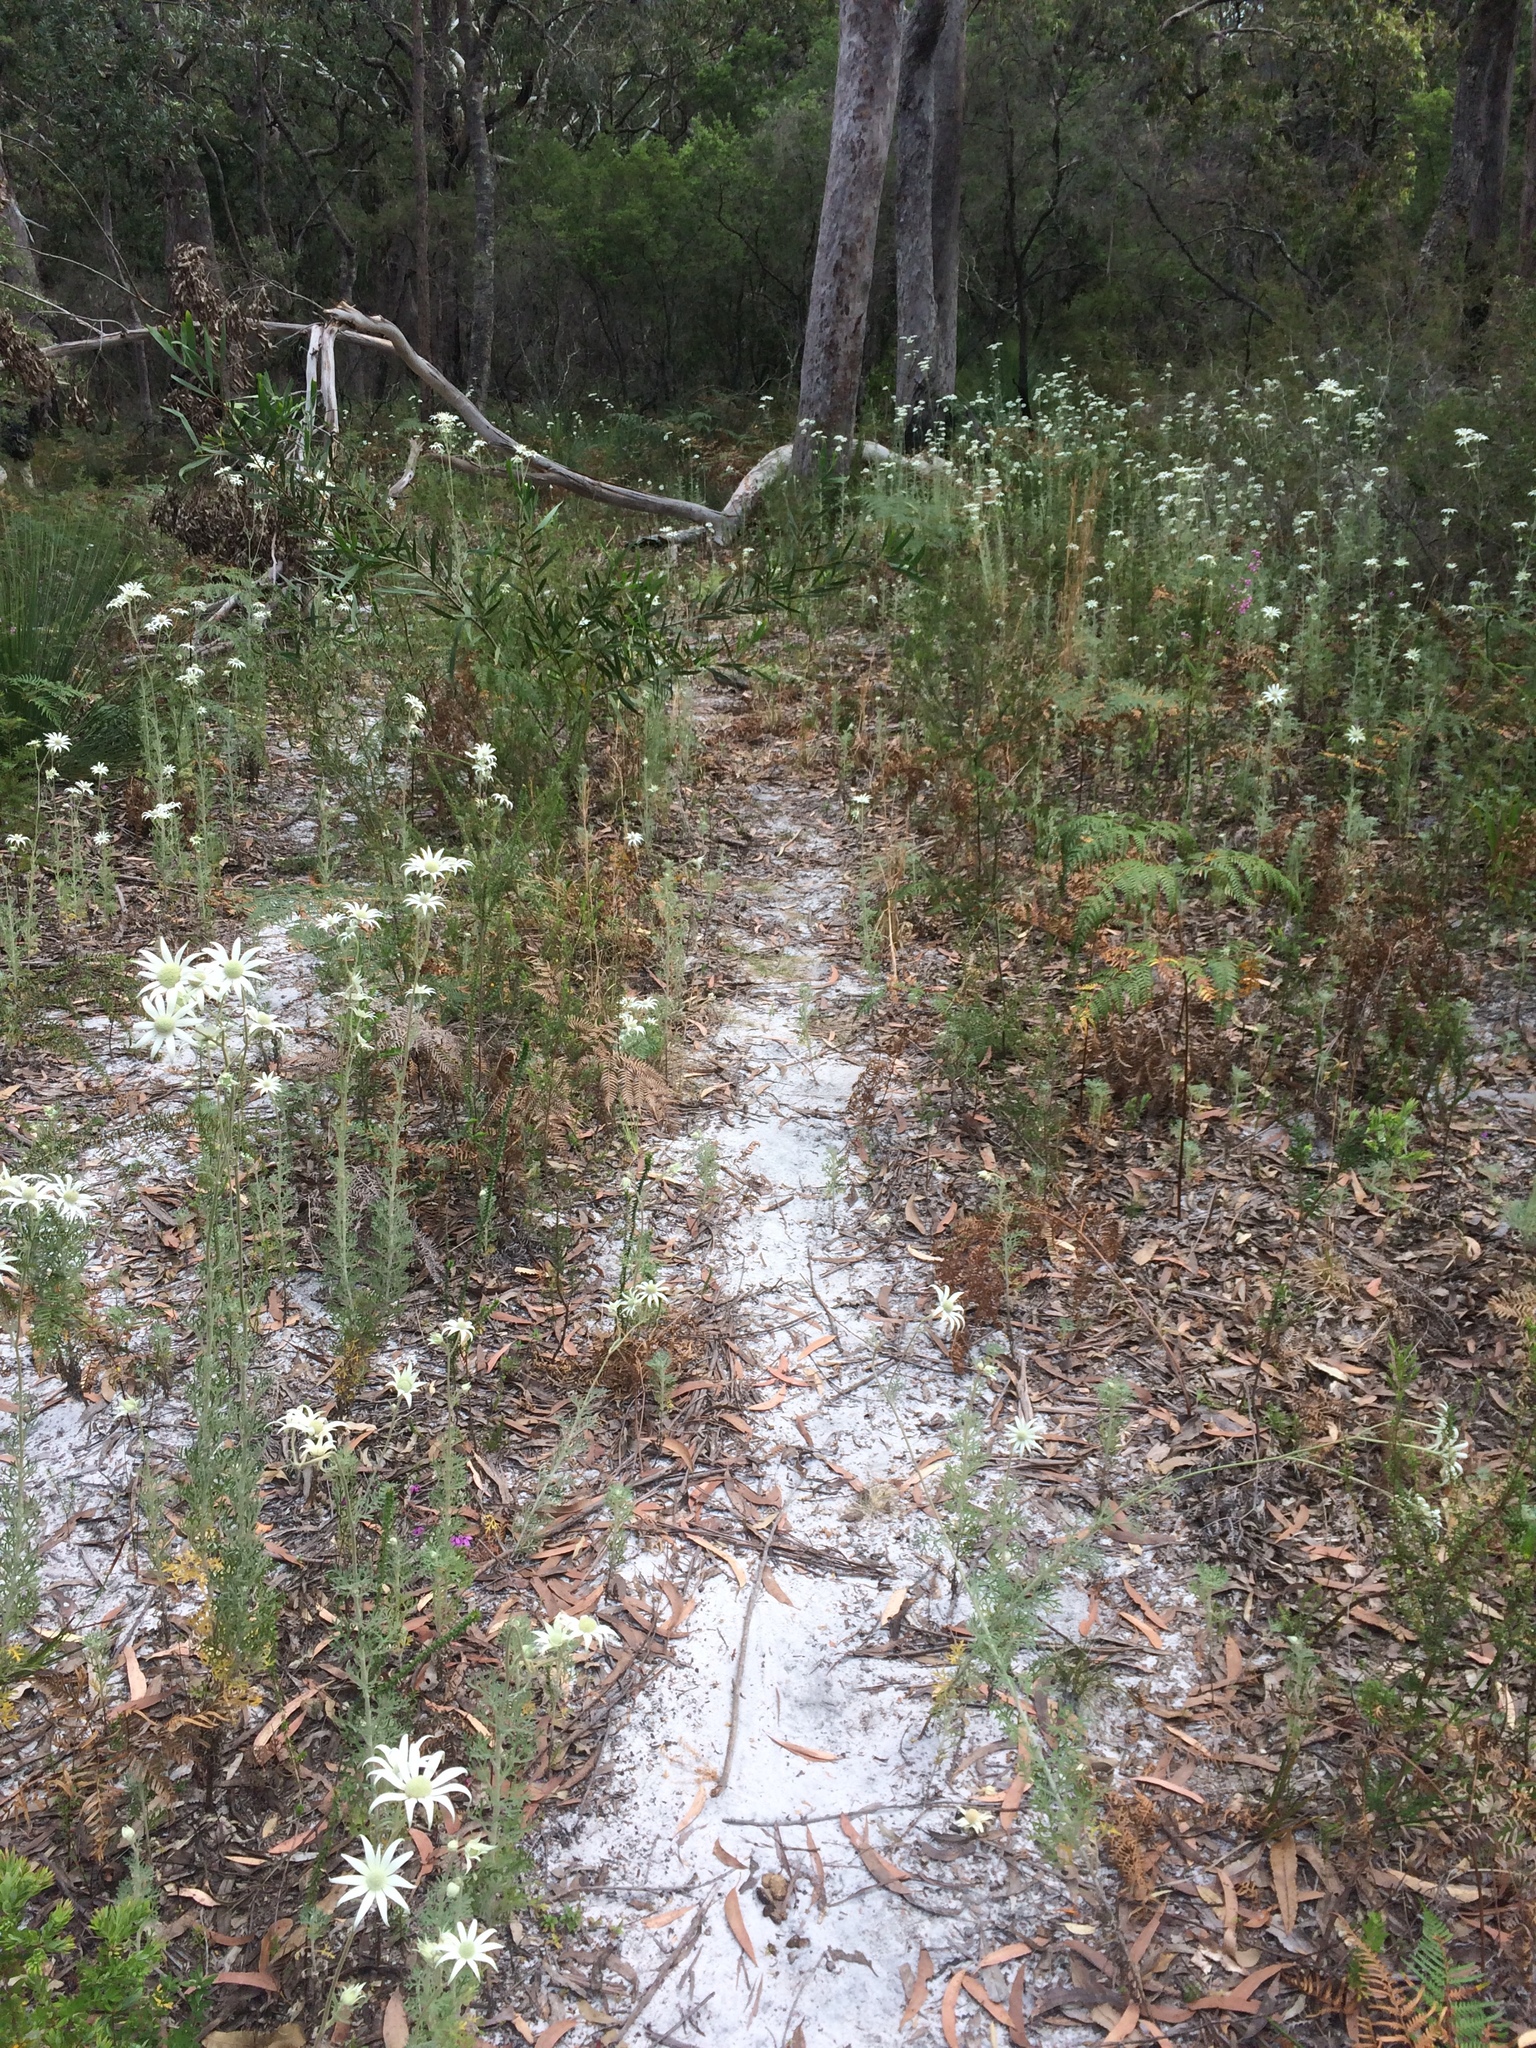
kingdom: Plantae
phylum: Tracheophyta
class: Magnoliopsida
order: Apiales
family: Apiaceae
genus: Actinotus
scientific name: Actinotus helianthi
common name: Flannel-flower
